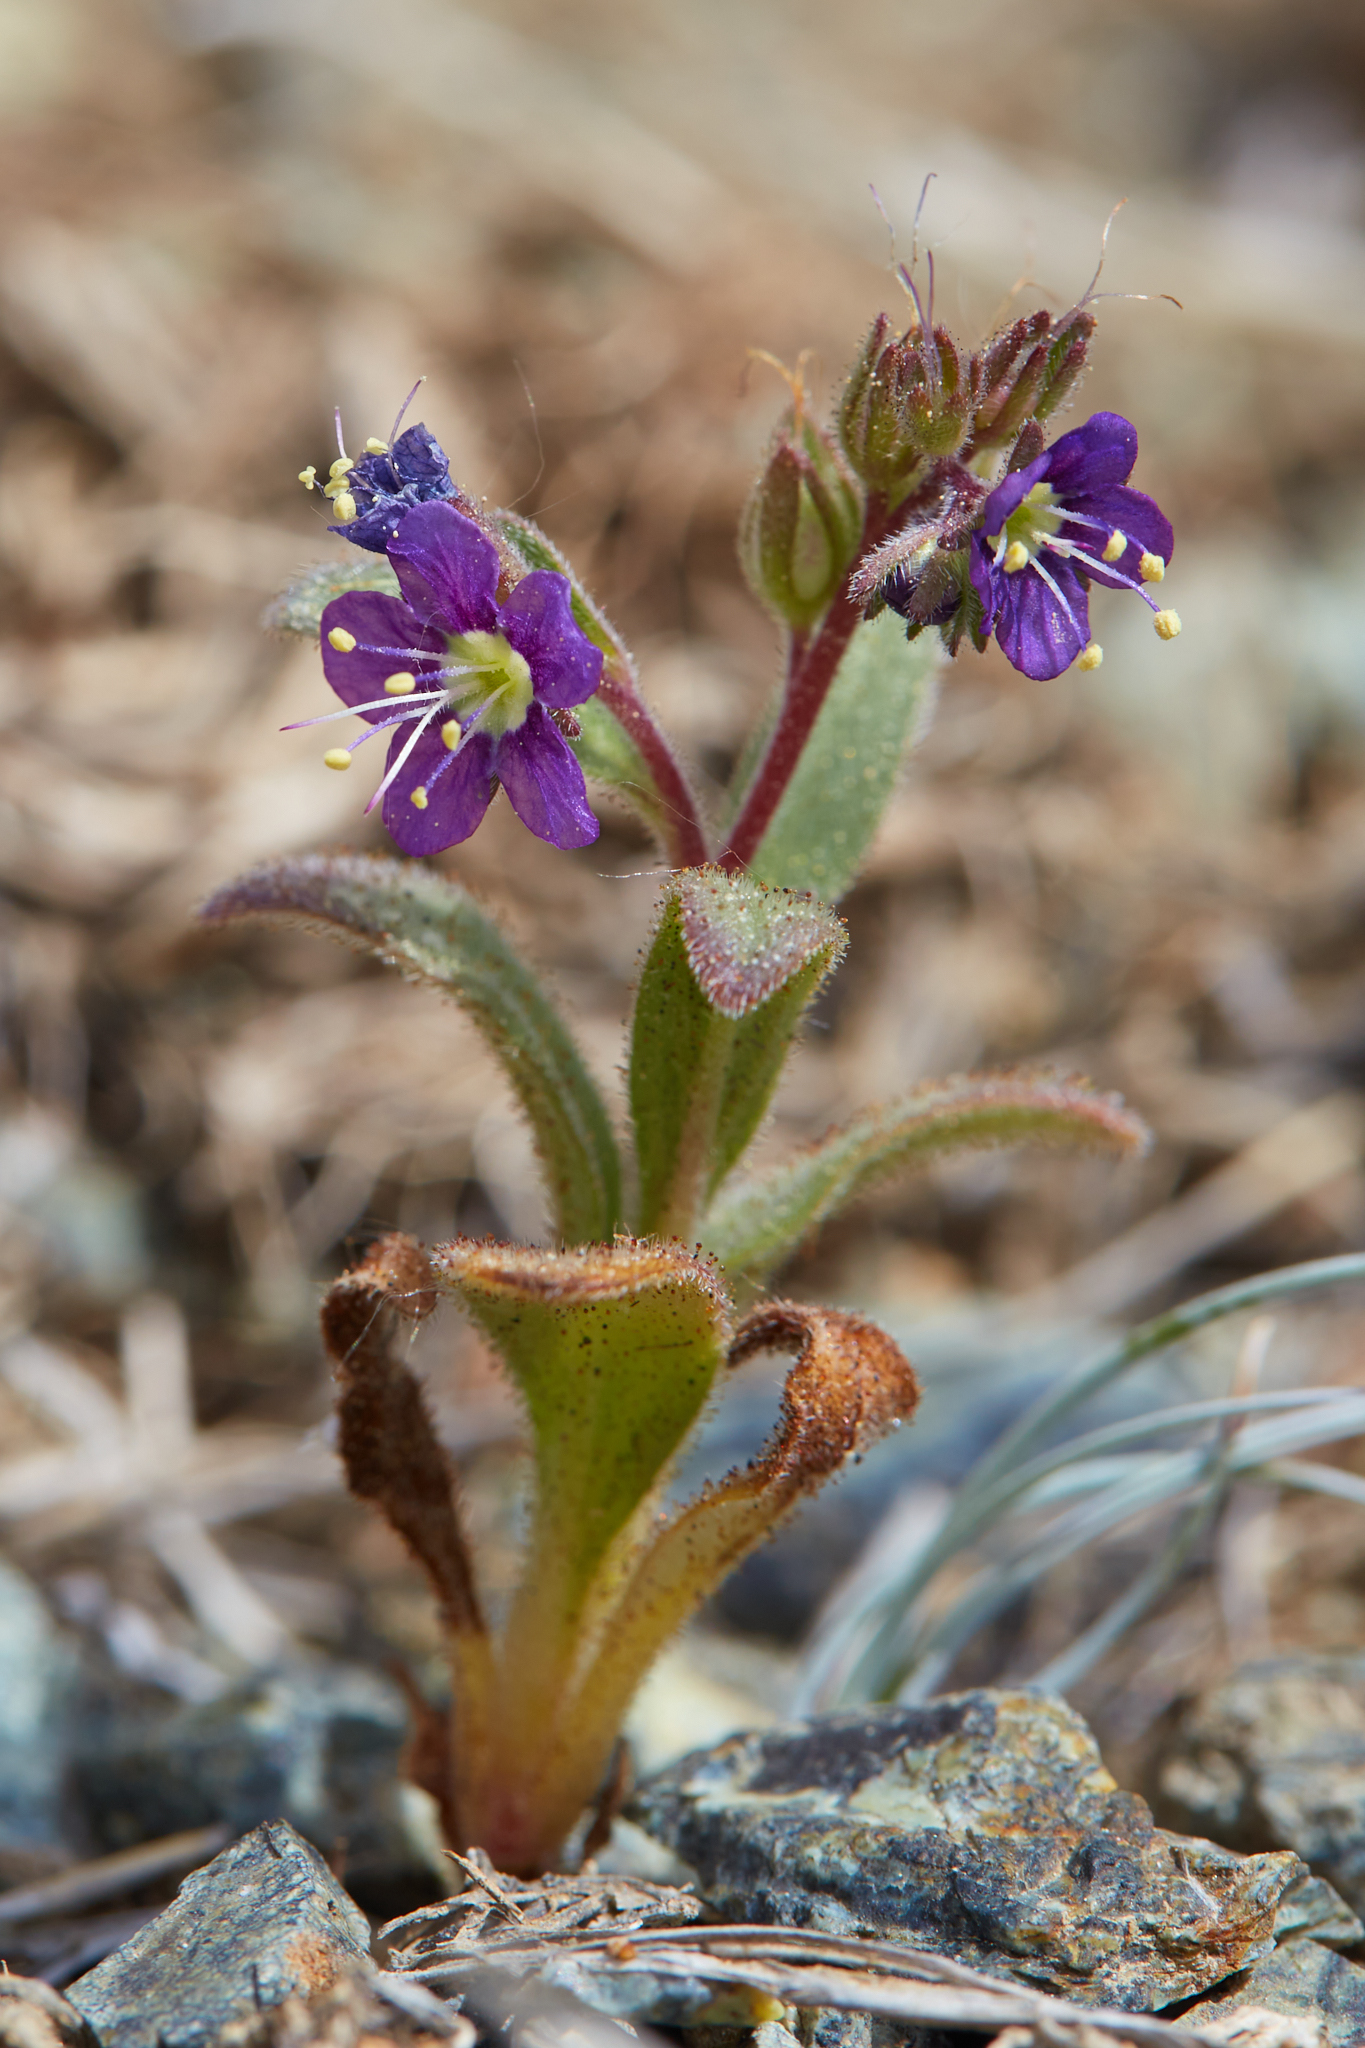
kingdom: Plantae
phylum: Tracheophyta
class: Magnoliopsida
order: Boraginales
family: Hydrophyllaceae
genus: Phacelia
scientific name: Phacelia greenei
